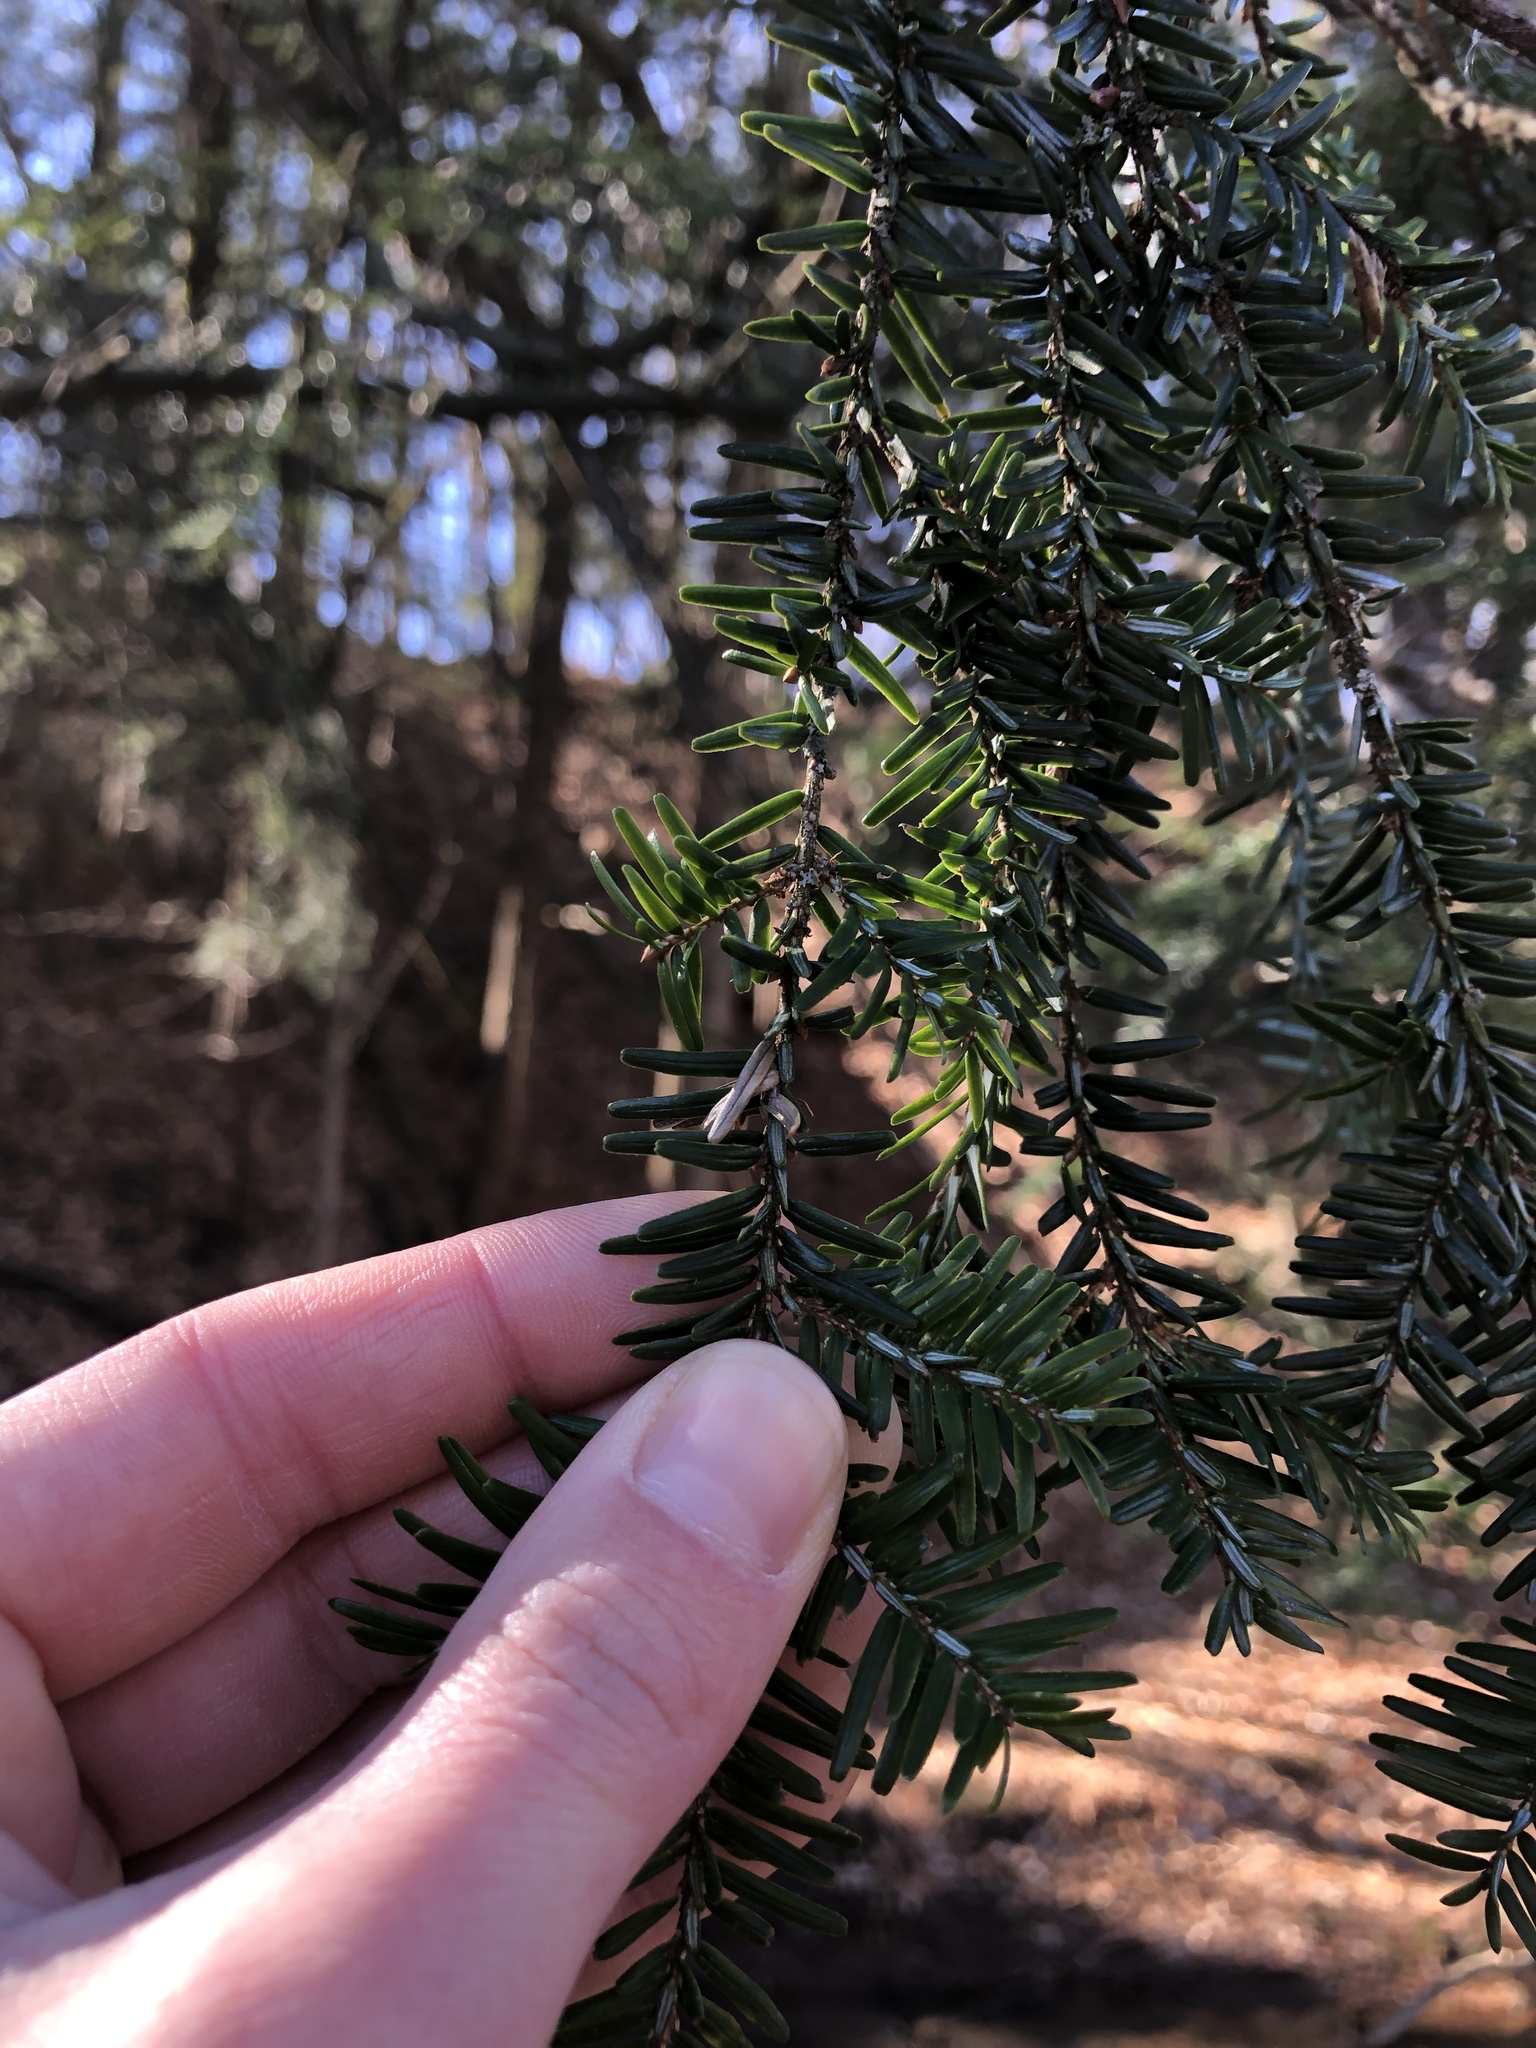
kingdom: Plantae
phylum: Tracheophyta
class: Pinopsida
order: Pinales
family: Pinaceae
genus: Tsuga
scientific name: Tsuga canadensis
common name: Eastern hemlock
